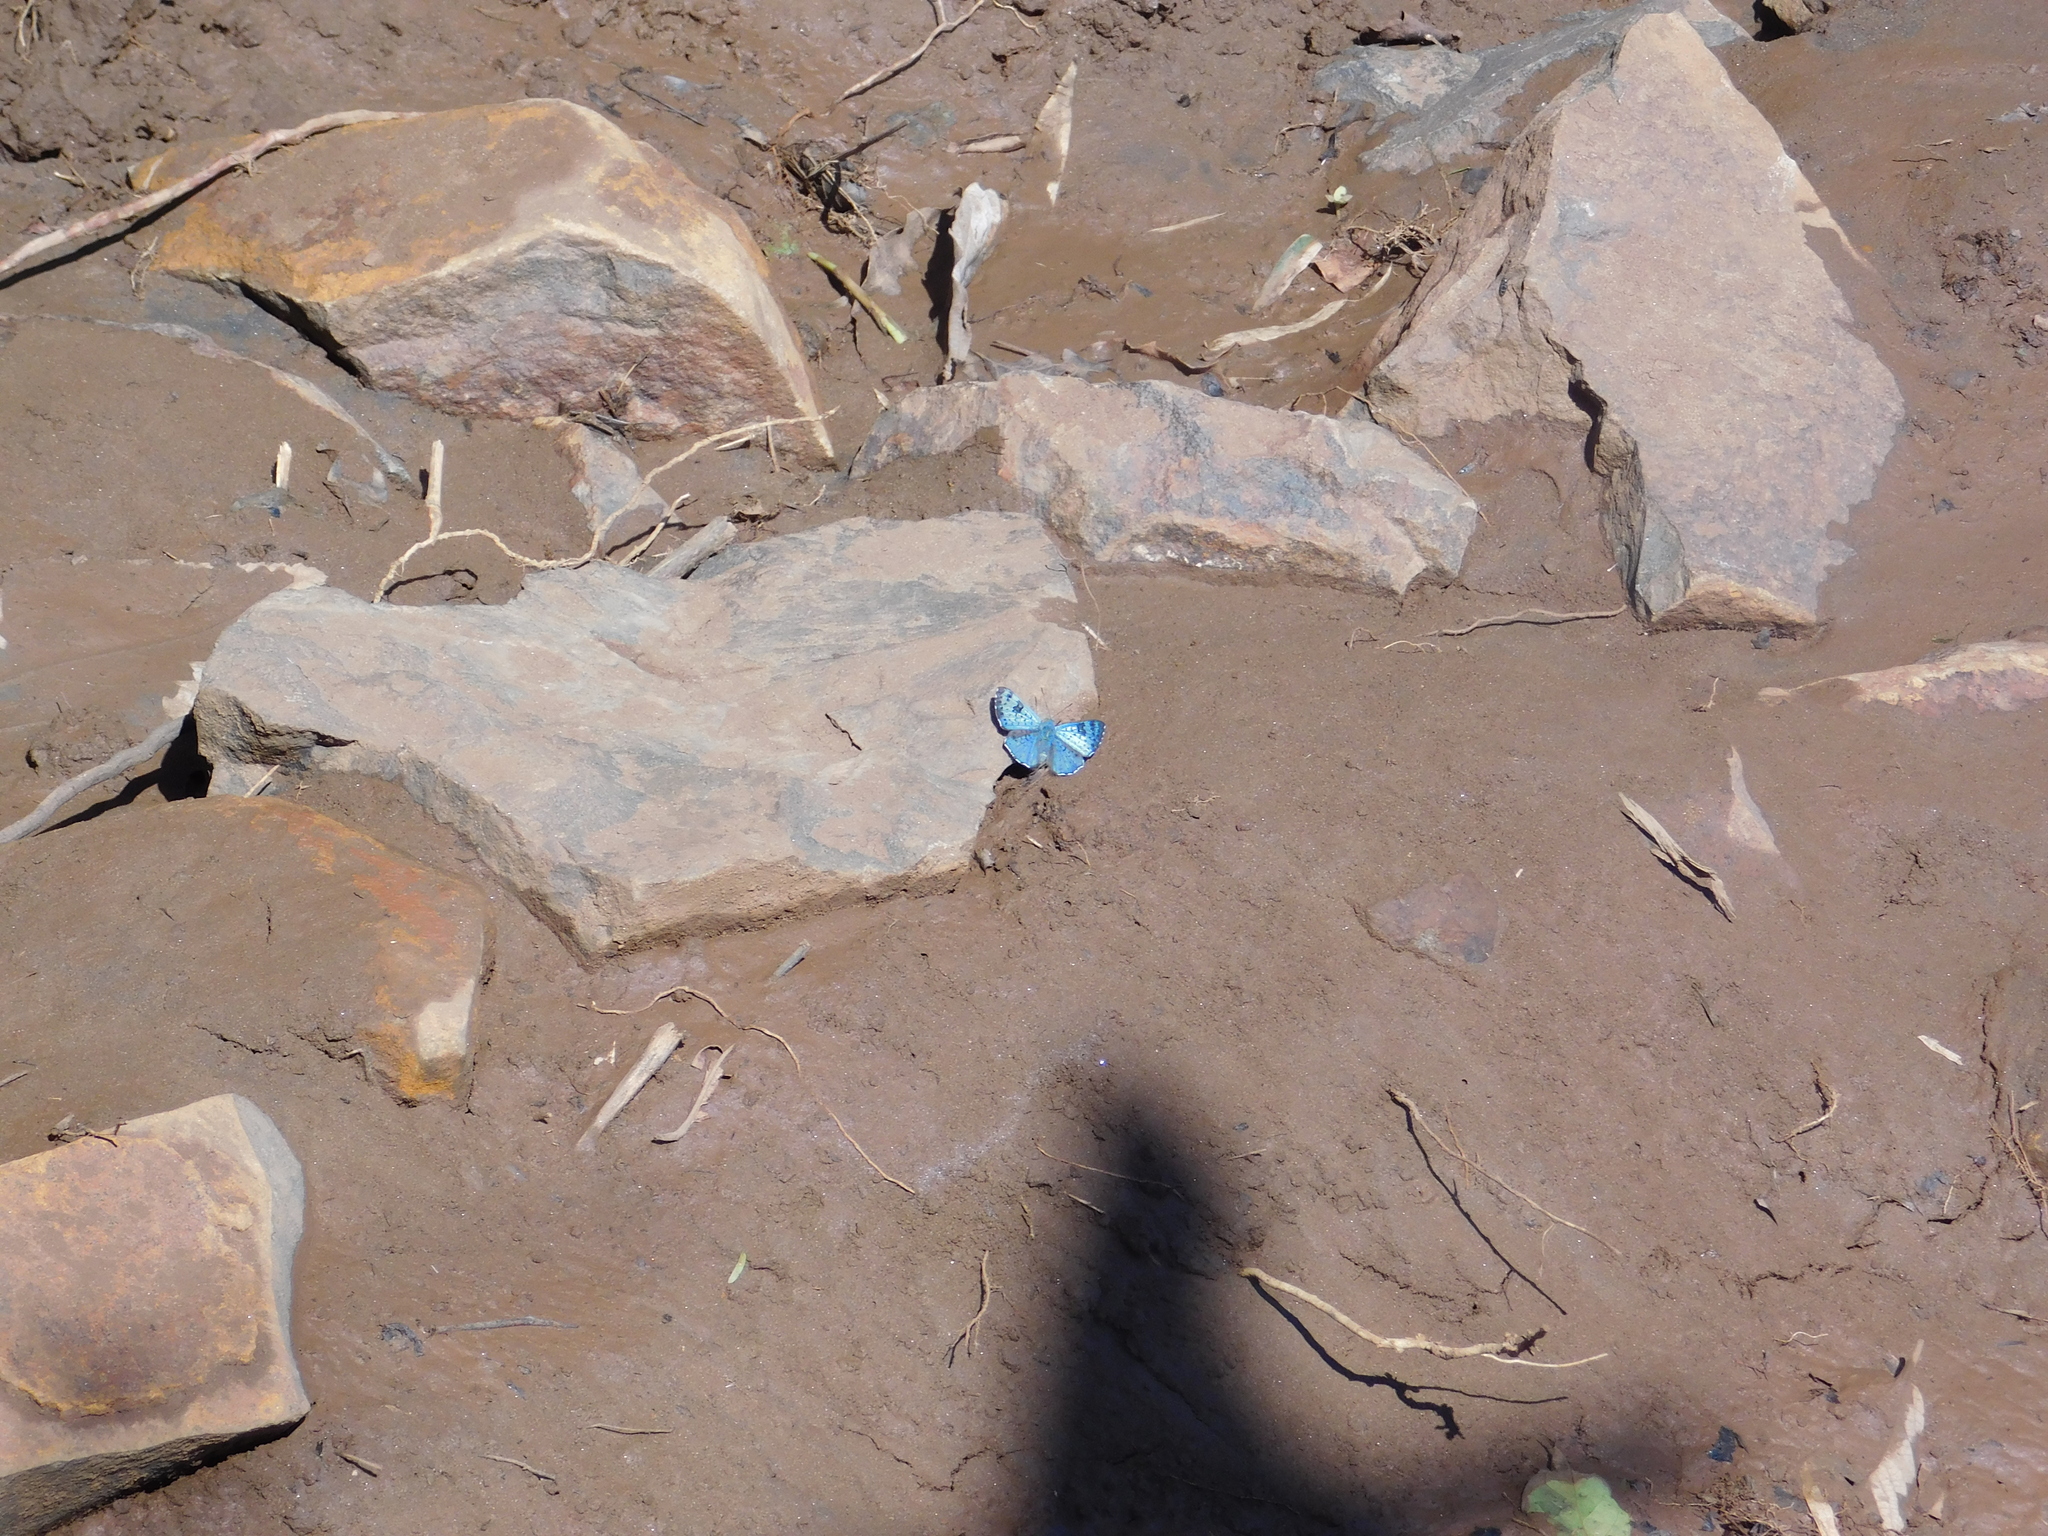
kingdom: Animalia
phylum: Arthropoda
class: Insecta
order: Lepidoptera
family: Riodinidae
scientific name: Riodinidae
